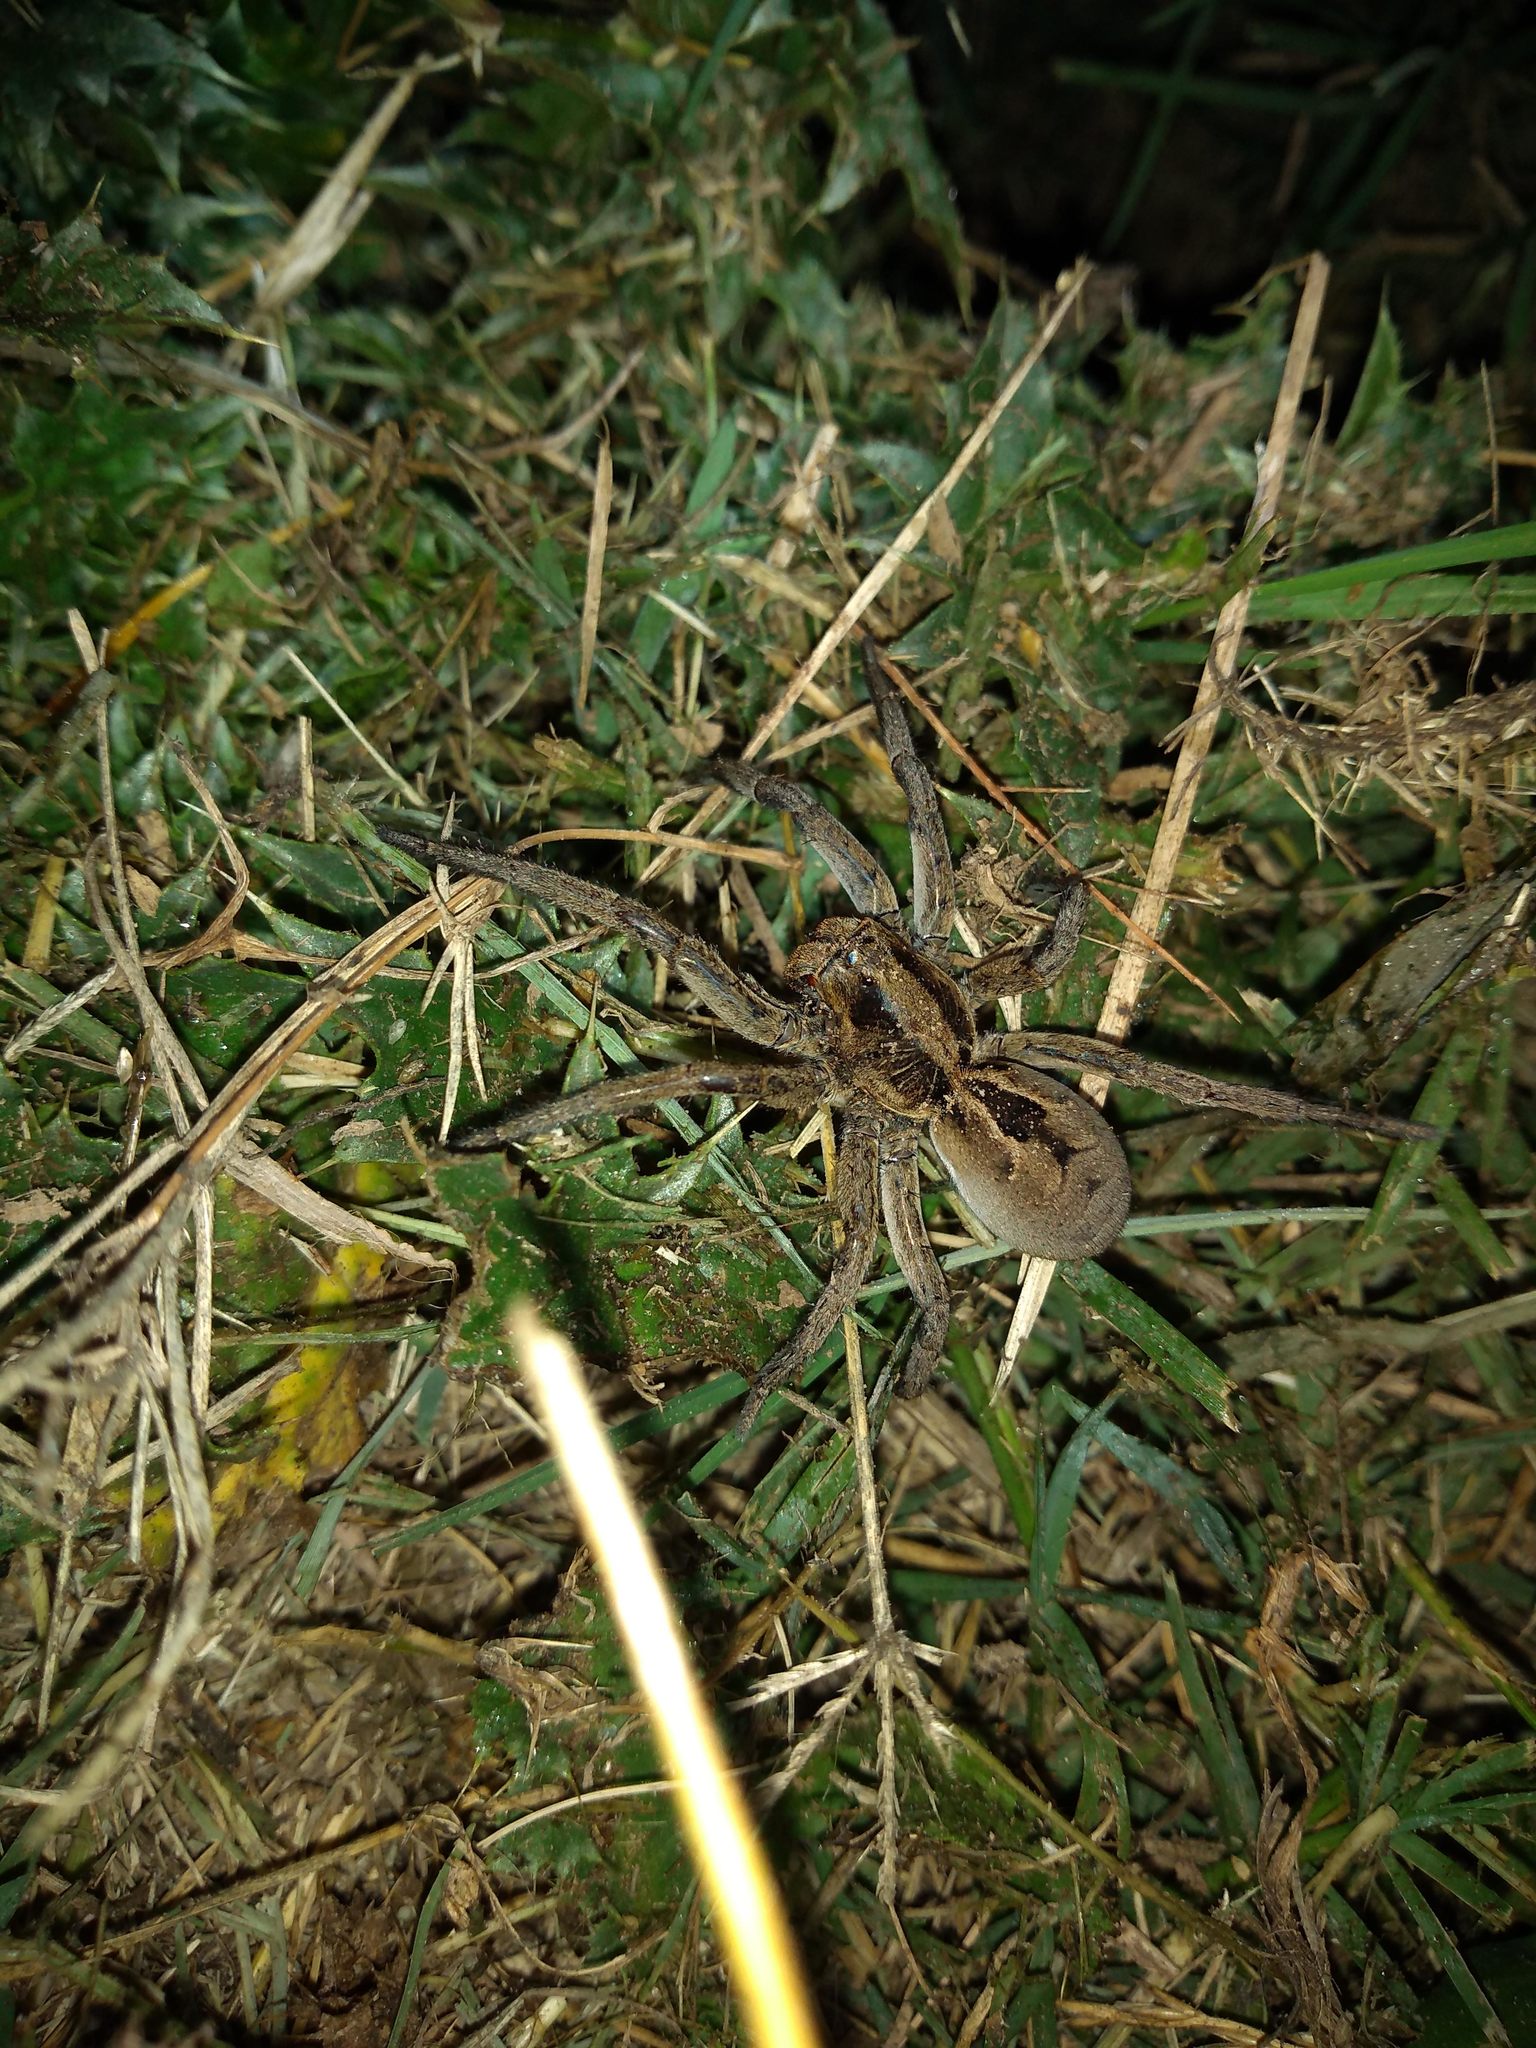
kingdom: Animalia
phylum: Arthropoda
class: Arachnida
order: Araneae
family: Lycosidae
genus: Lycosa
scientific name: Lycosa erythrognatha
